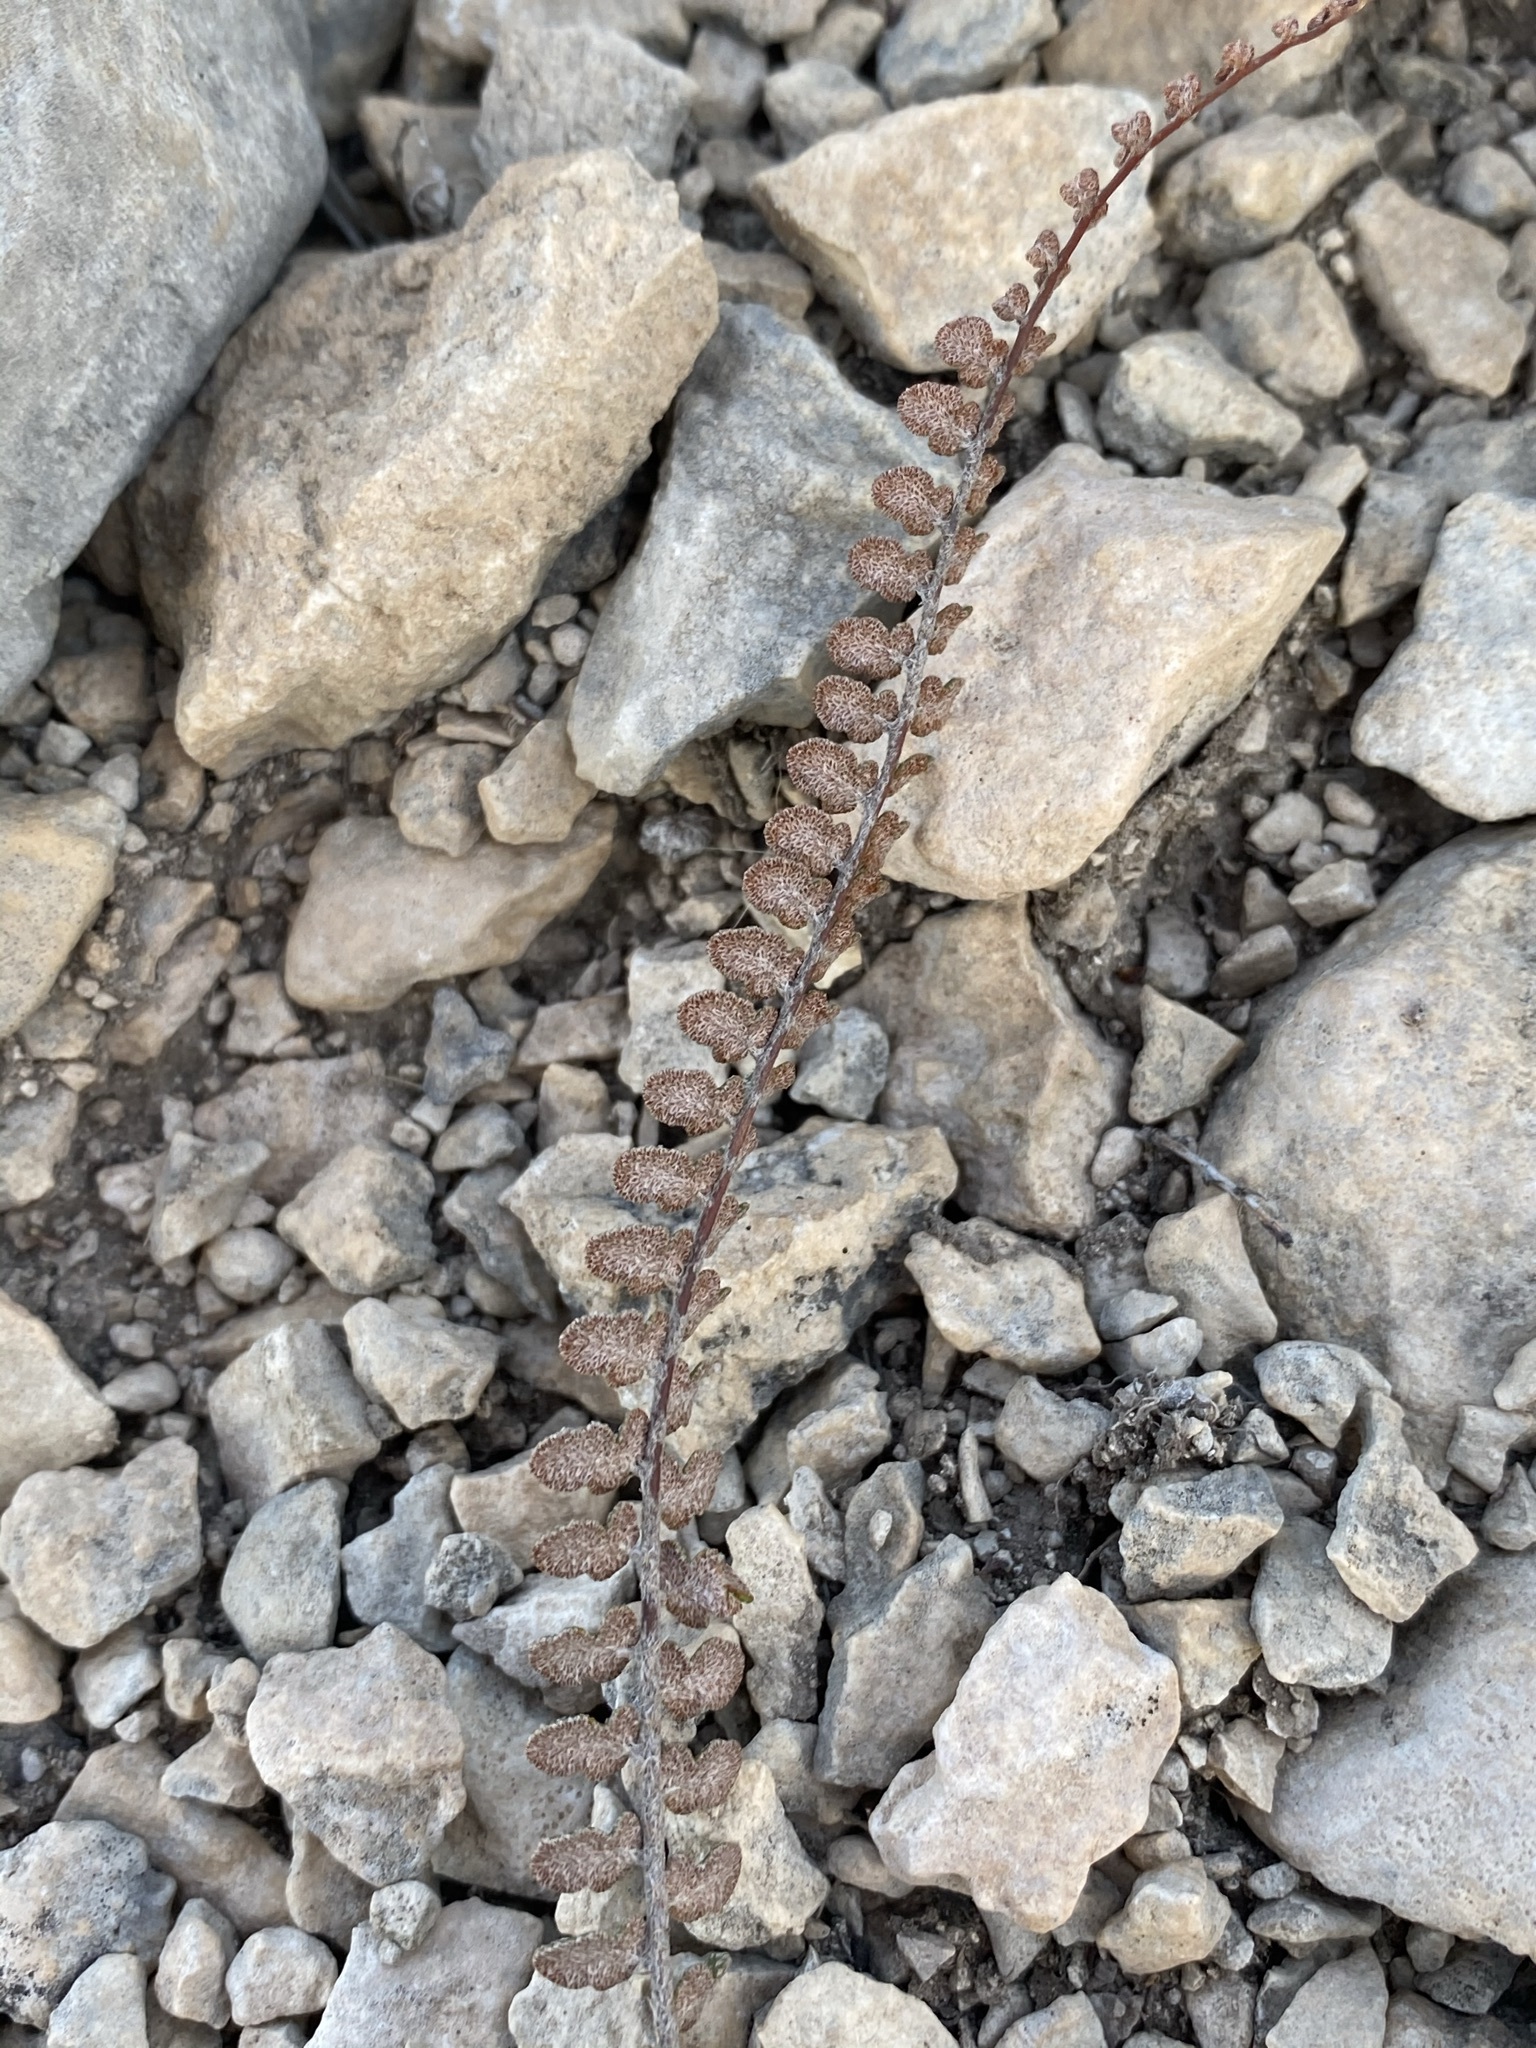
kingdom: Plantae
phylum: Tracheophyta
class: Polypodiopsida
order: Polypodiales
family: Pteridaceae
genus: Astrolepis
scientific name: Astrolepis cochisensis
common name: Scaly cloak fern
